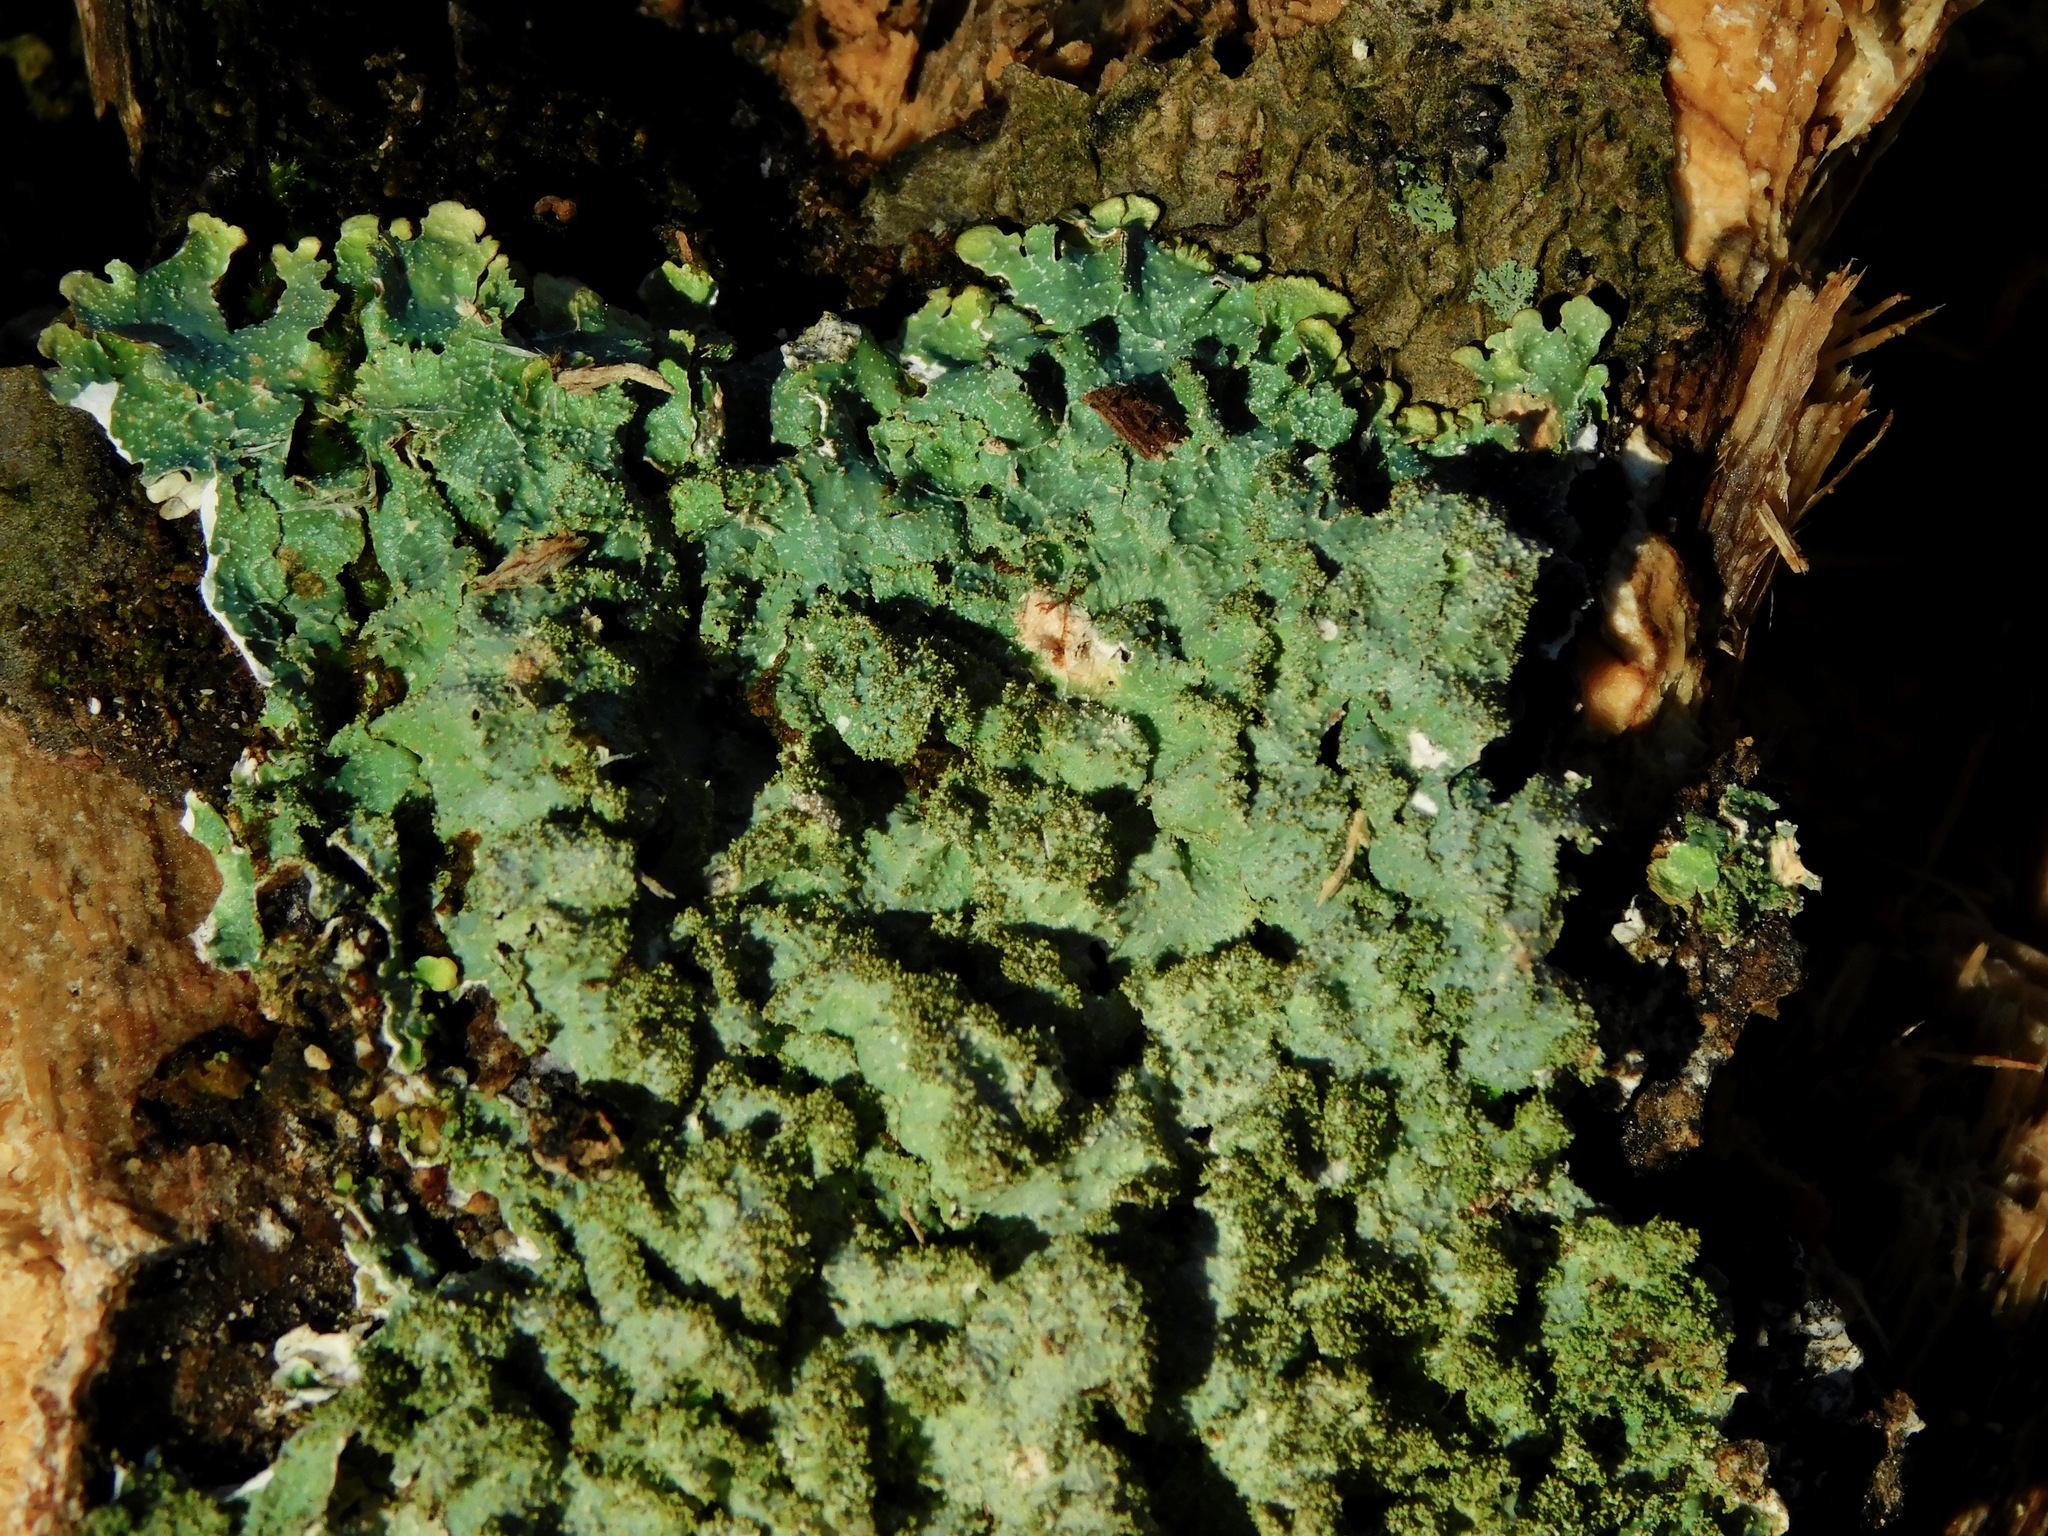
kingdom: Fungi
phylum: Ascomycota
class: Lecanoromycetes
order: Lecanorales
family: Parmeliaceae
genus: Punctelia
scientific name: Punctelia rudecta
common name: Rough speckled shield lichen
